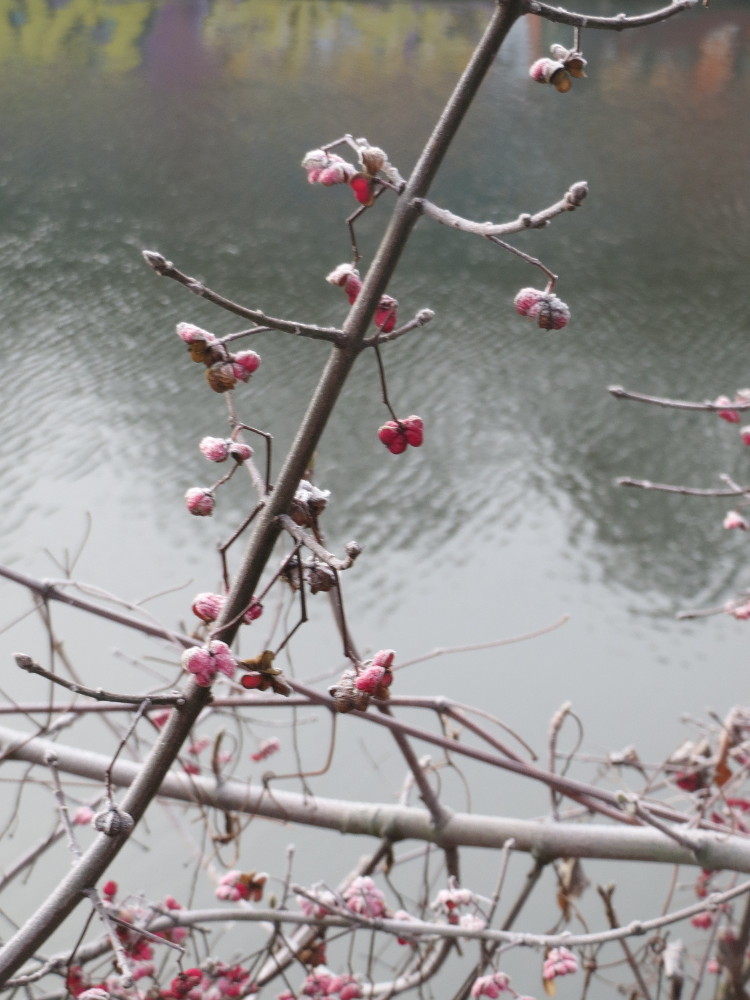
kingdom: Plantae
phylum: Tracheophyta
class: Magnoliopsida
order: Celastrales
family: Celastraceae
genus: Euonymus
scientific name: Euonymus europaeus
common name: Spindle
